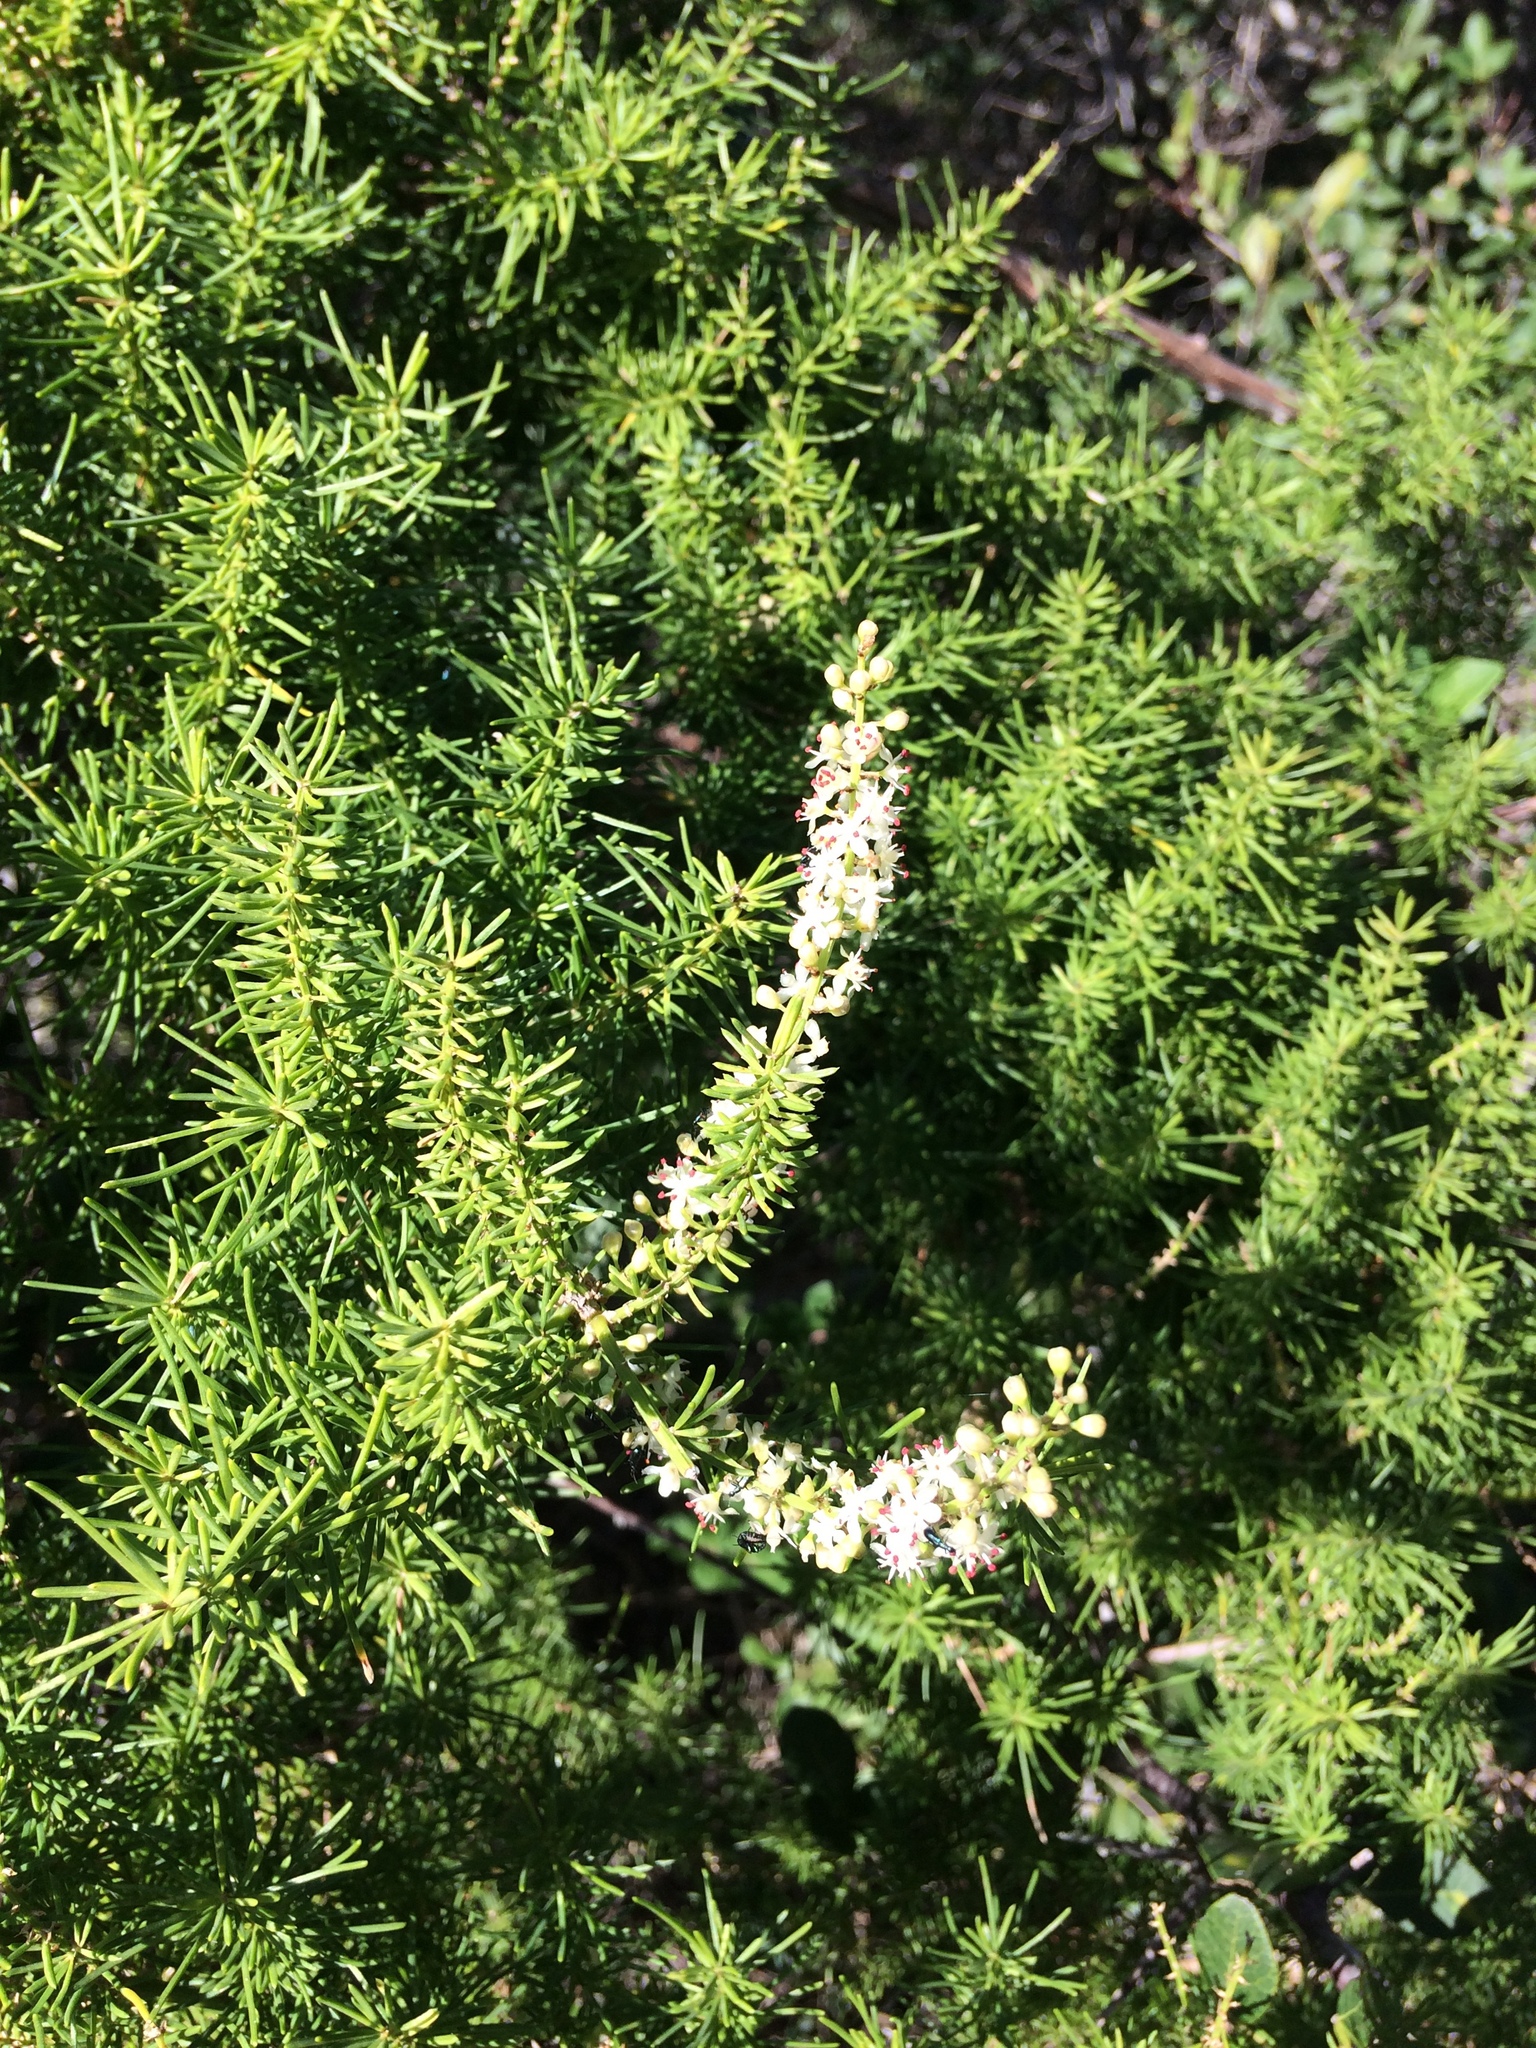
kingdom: Plantae
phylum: Tracheophyta
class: Liliopsida
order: Asparagales
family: Asparagaceae
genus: Asparagus
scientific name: Asparagus densiflorus
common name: Asparagus fern
